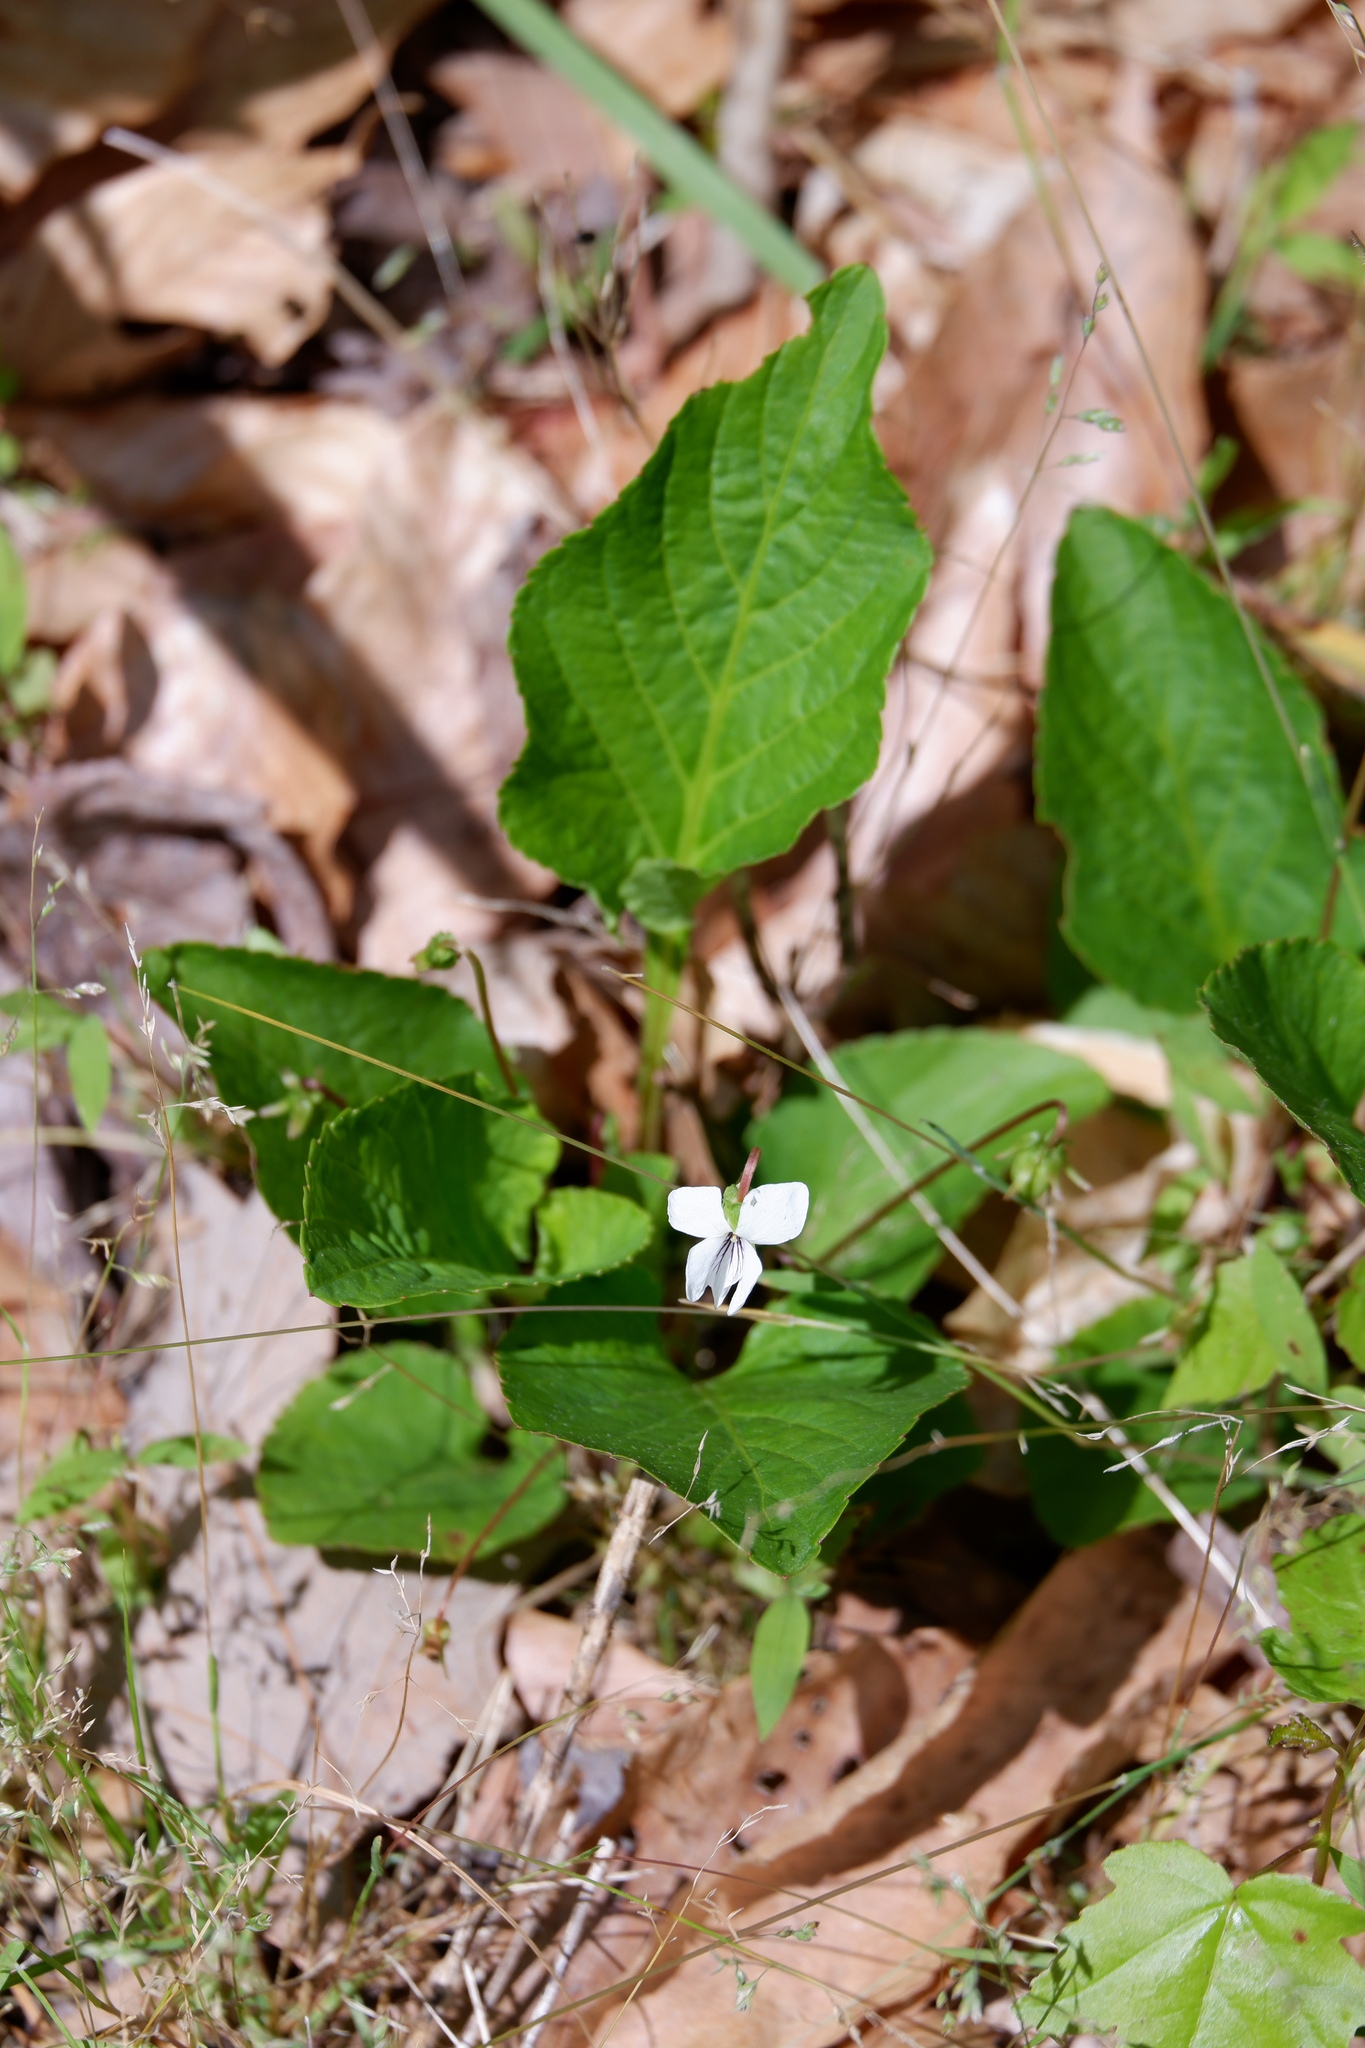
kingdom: Plantae
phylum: Tracheophyta
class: Magnoliopsida
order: Malpighiales
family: Violaceae
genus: Viola
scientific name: Viola primulifolia
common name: Primrose-leaf violet
